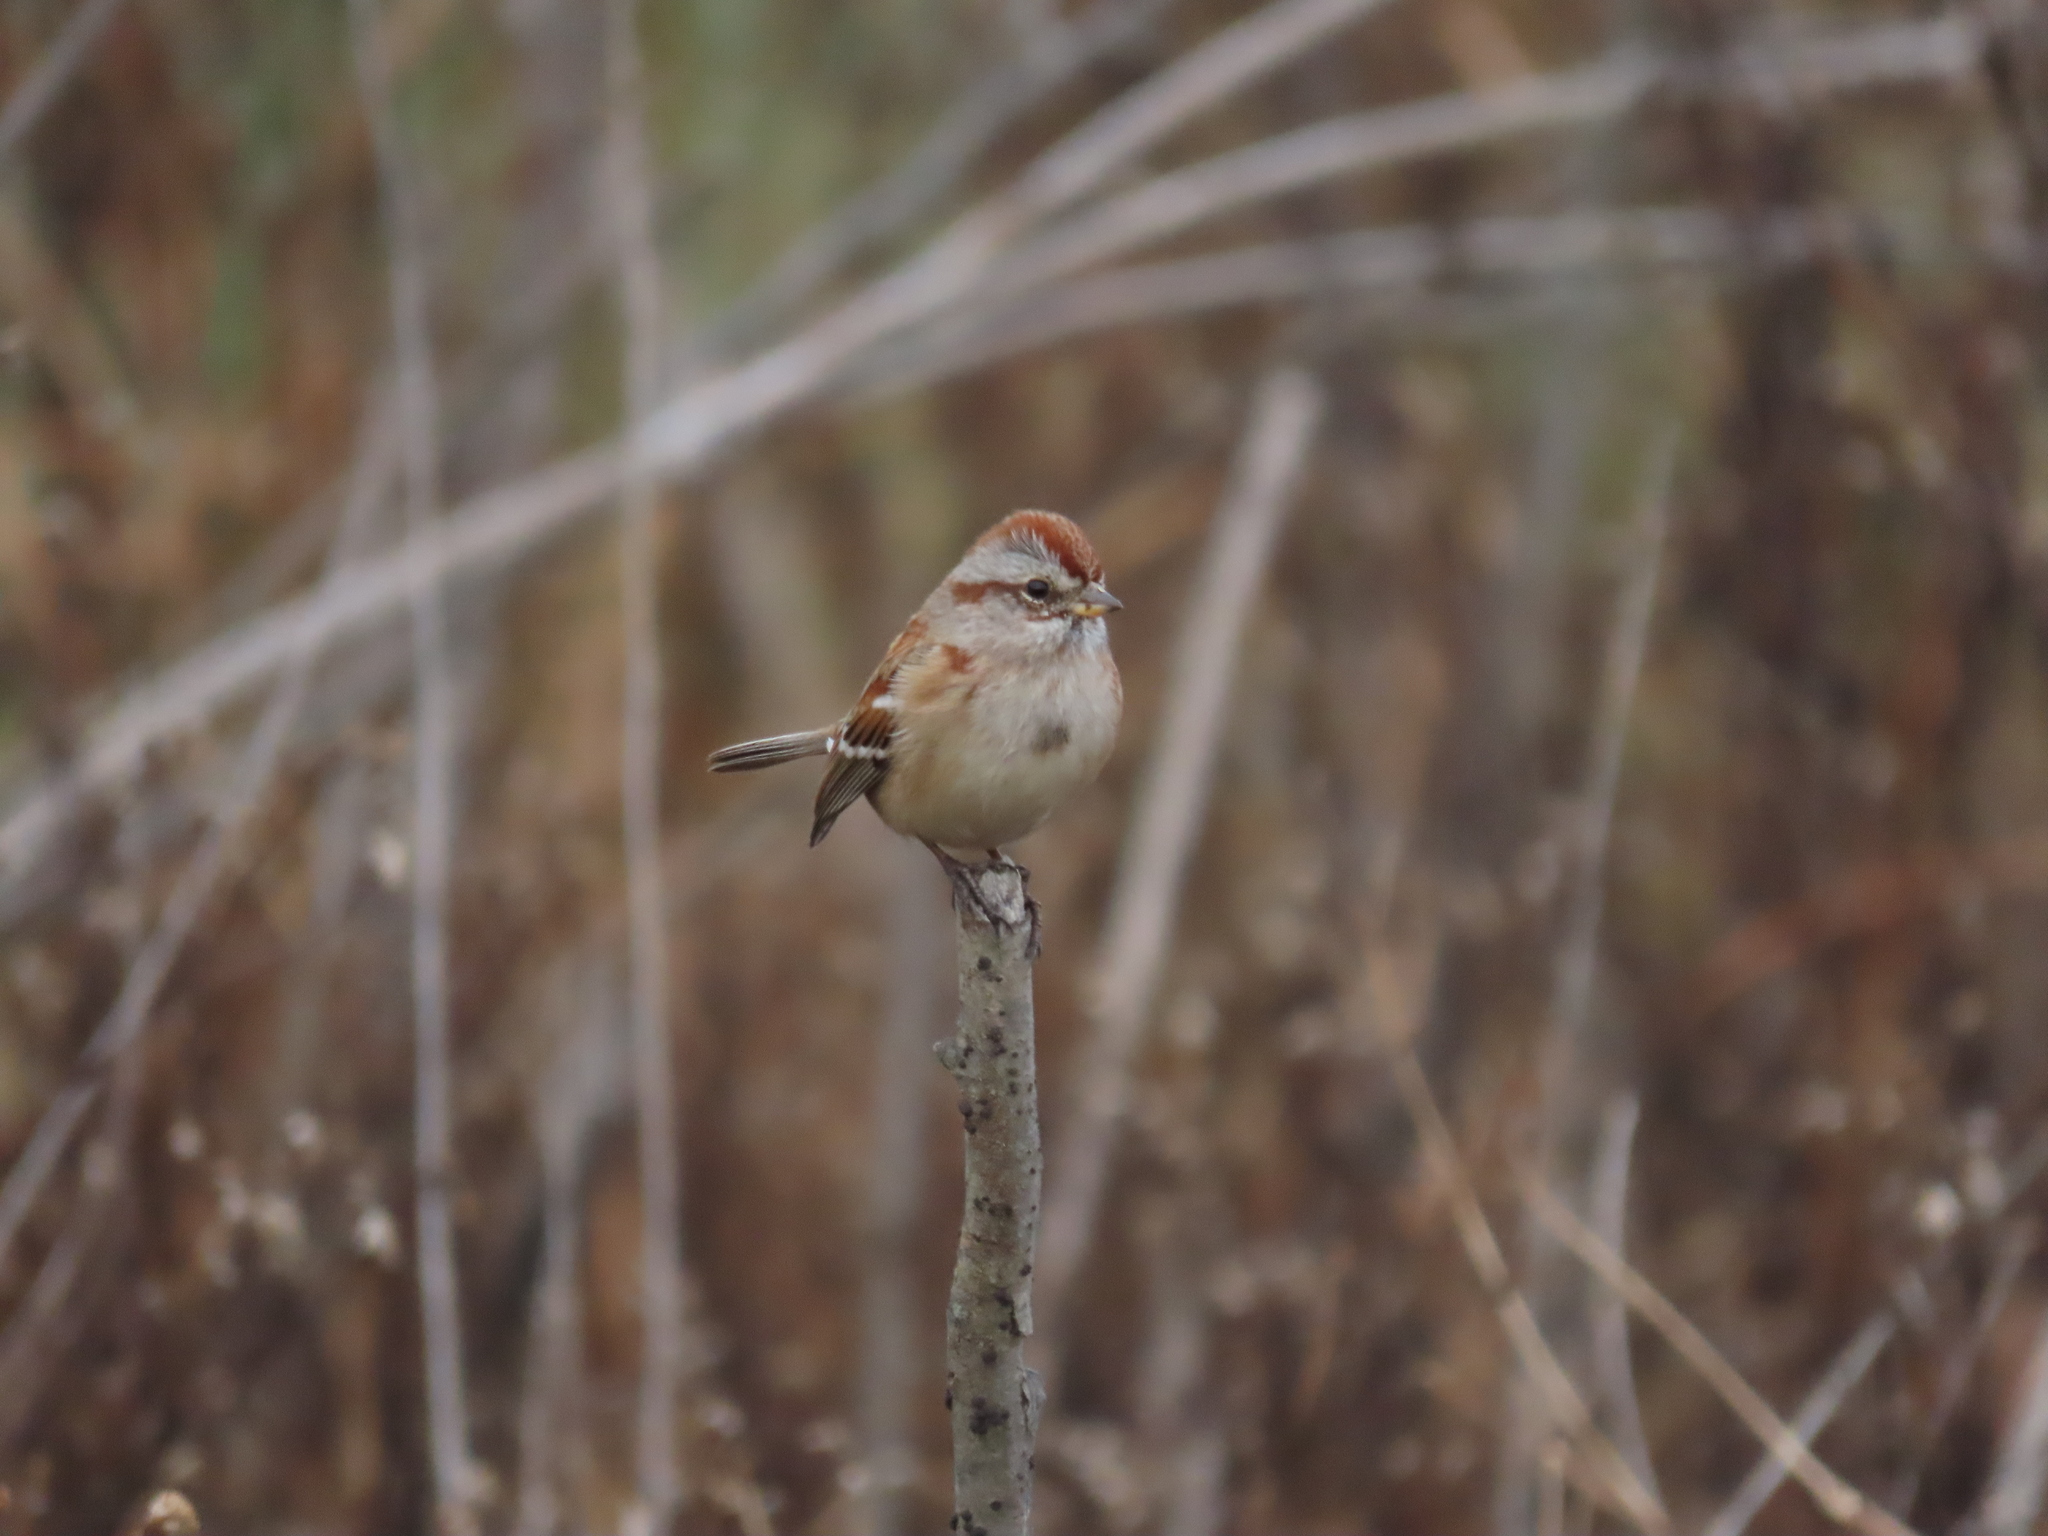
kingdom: Animalia
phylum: Chordata
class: Aves
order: Passeriformes
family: Passerellidae
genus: Spizelloides
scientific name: Spizelloides arborea
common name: American tree sparrow
